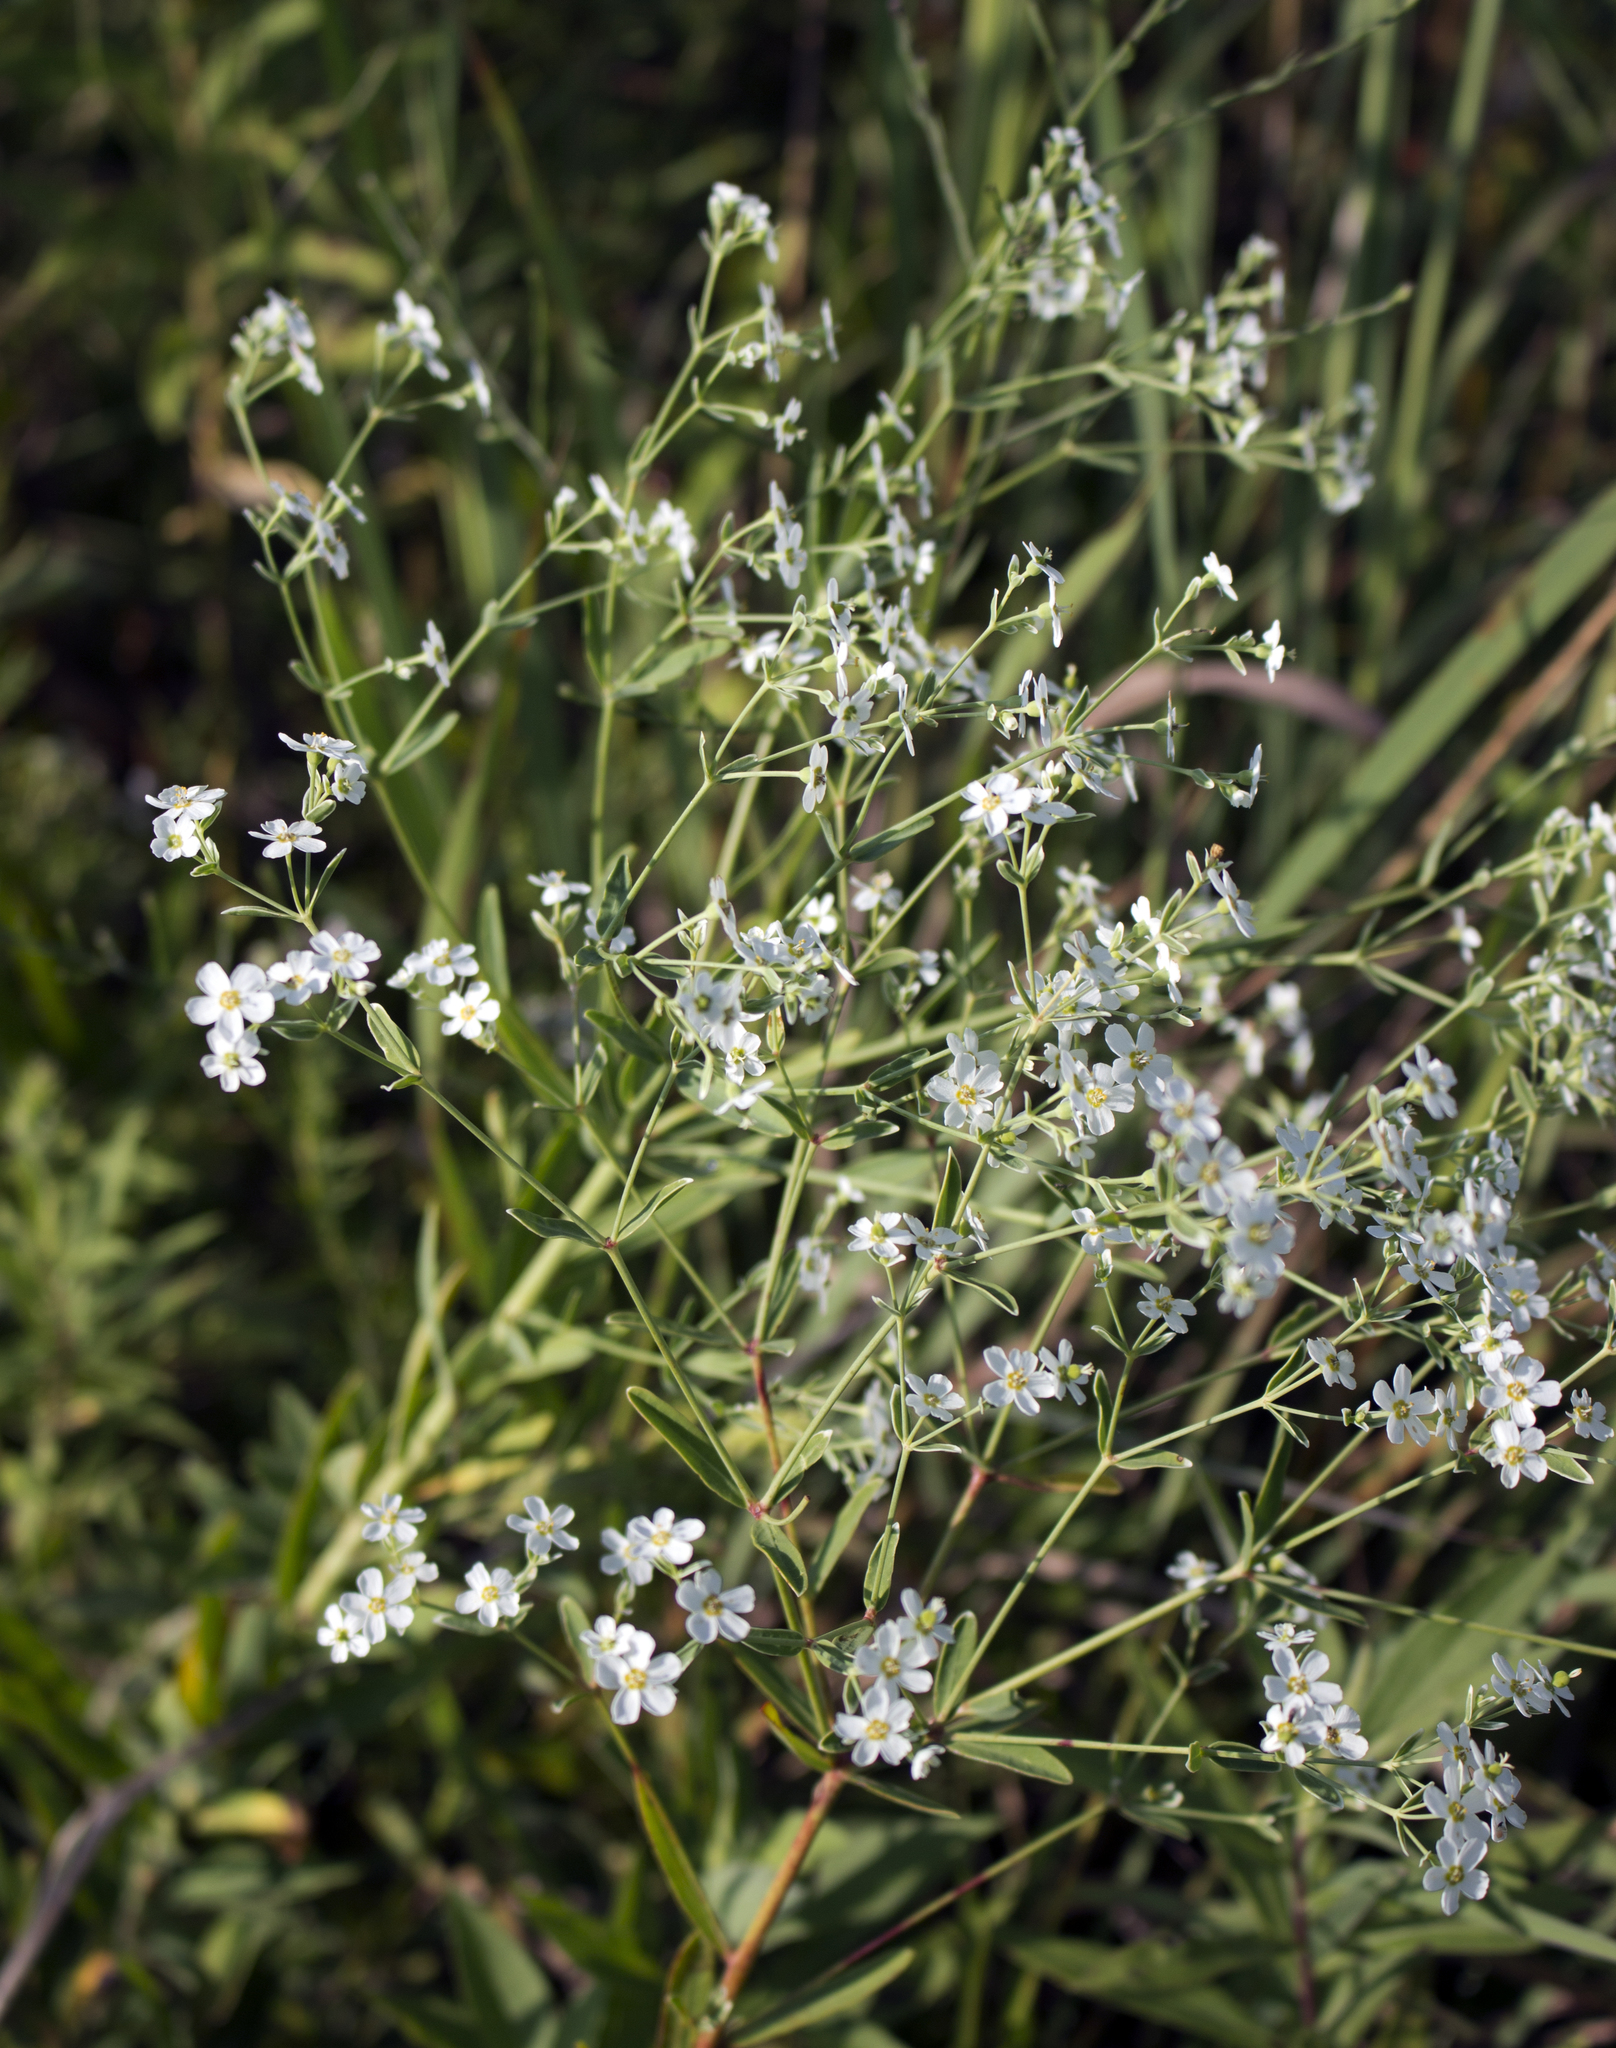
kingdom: Plantae
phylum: Tracheophyta
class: Magnoliopsida
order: Malpighiales
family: Euphorbiaceae
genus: Euphorbia
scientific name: Euphorbia corollata
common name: Flowering spurge
